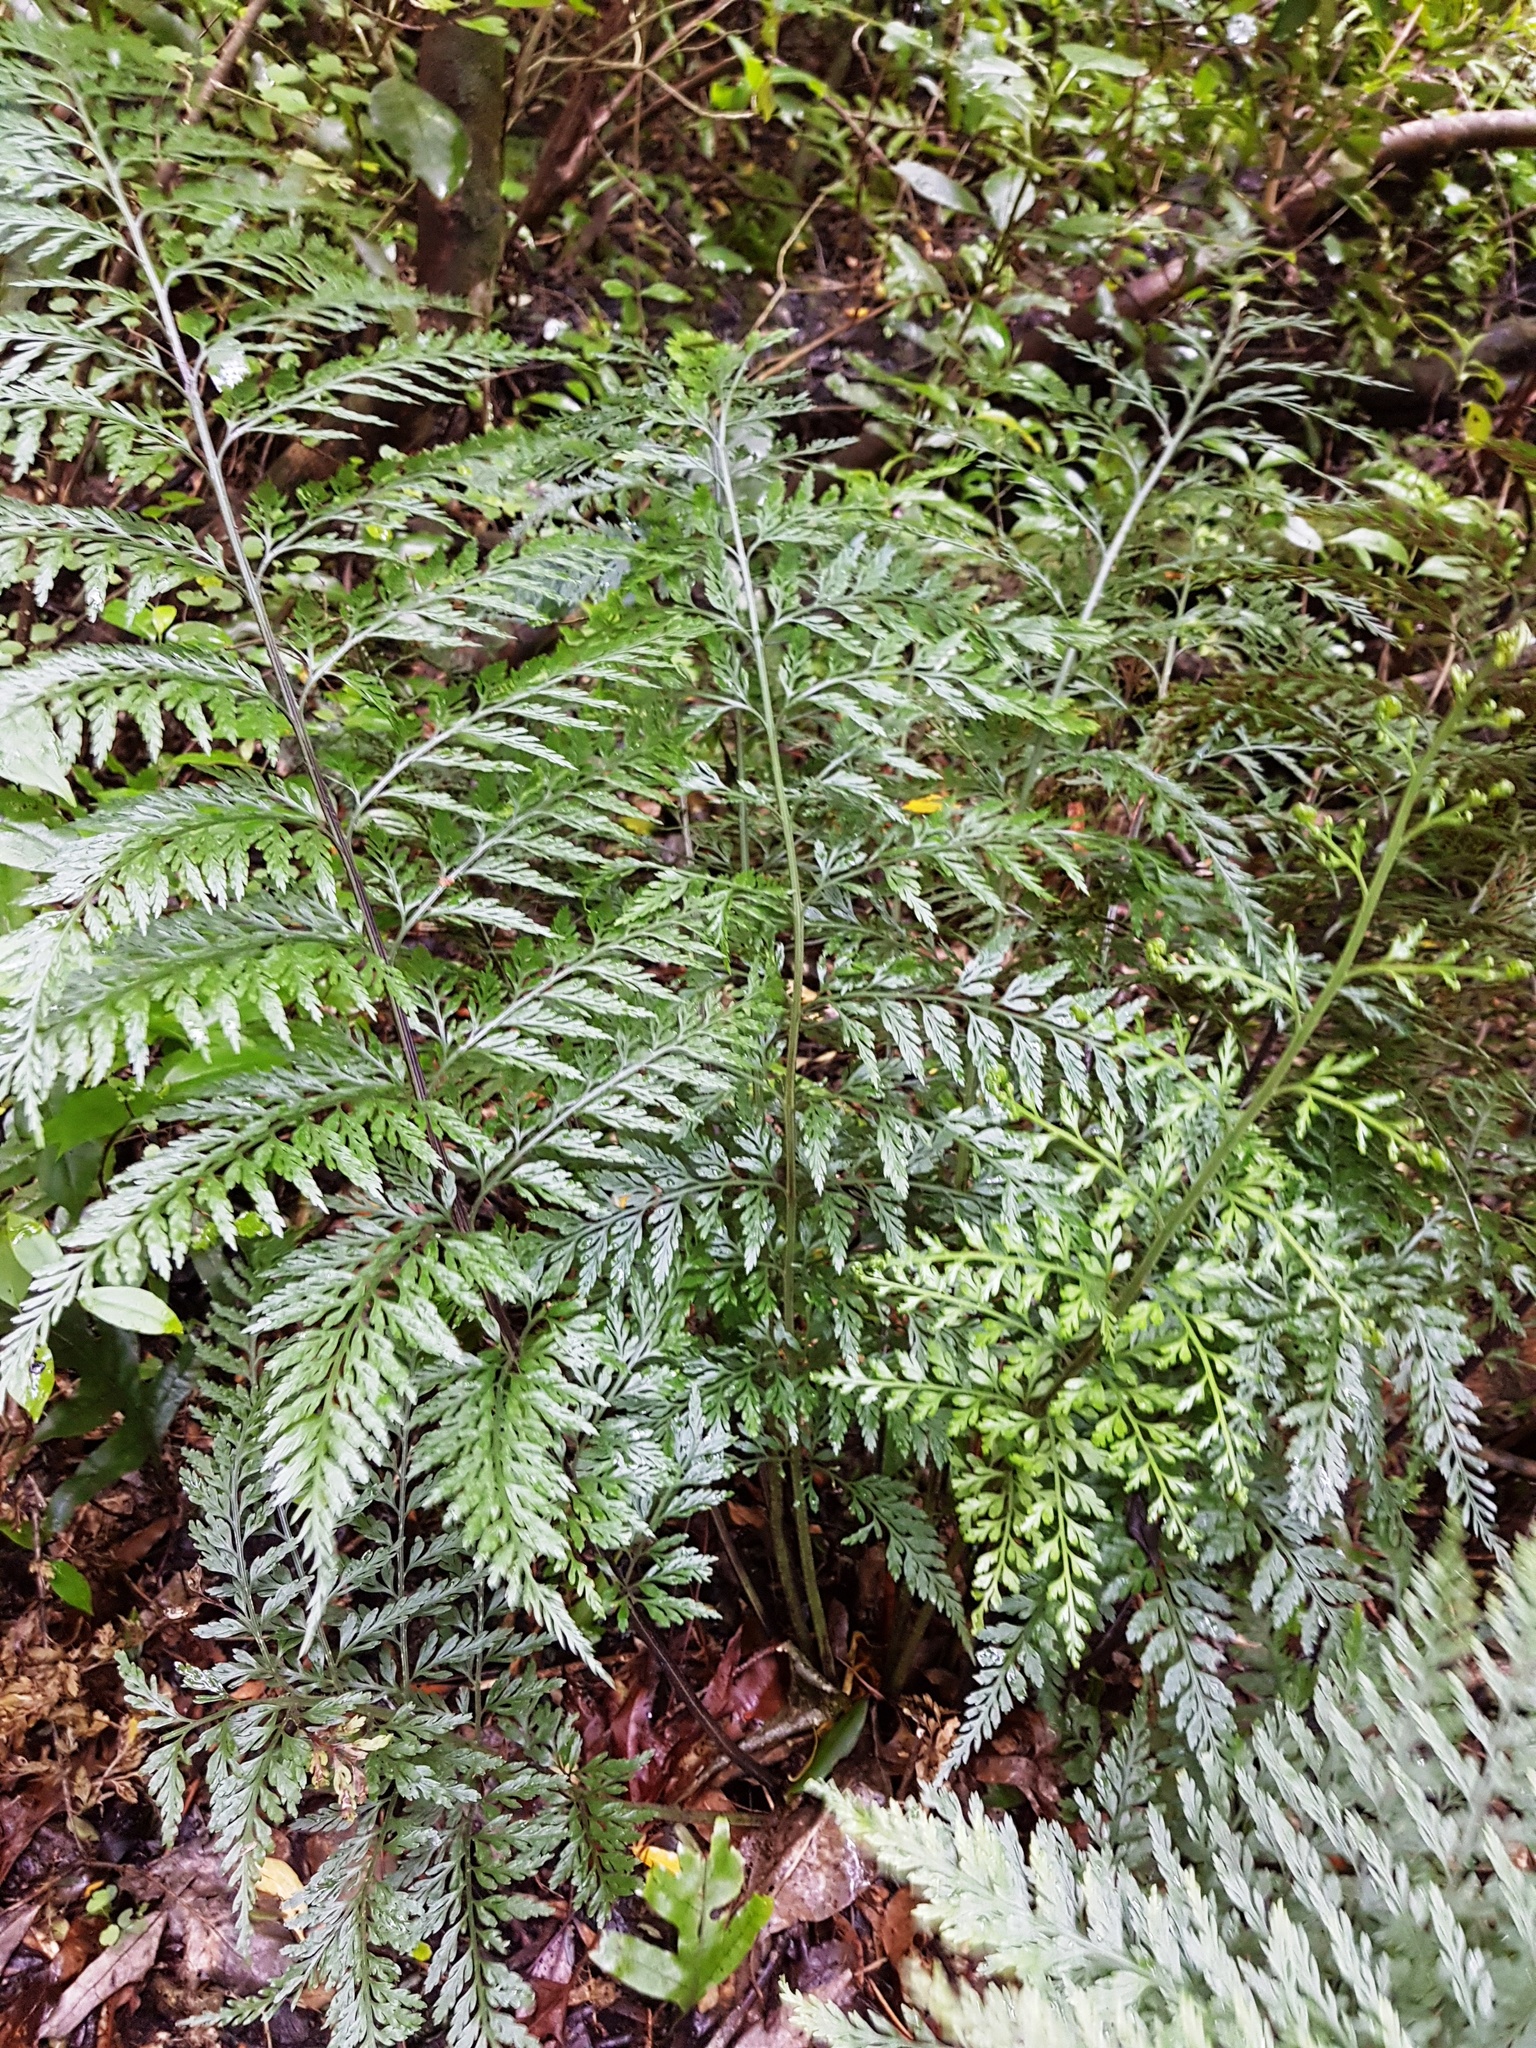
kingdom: Plantae
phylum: Tracheophyta
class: Polypodiopsida
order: Polypodiales
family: Aspleniaceae
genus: Asplenium
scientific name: Asplenium
